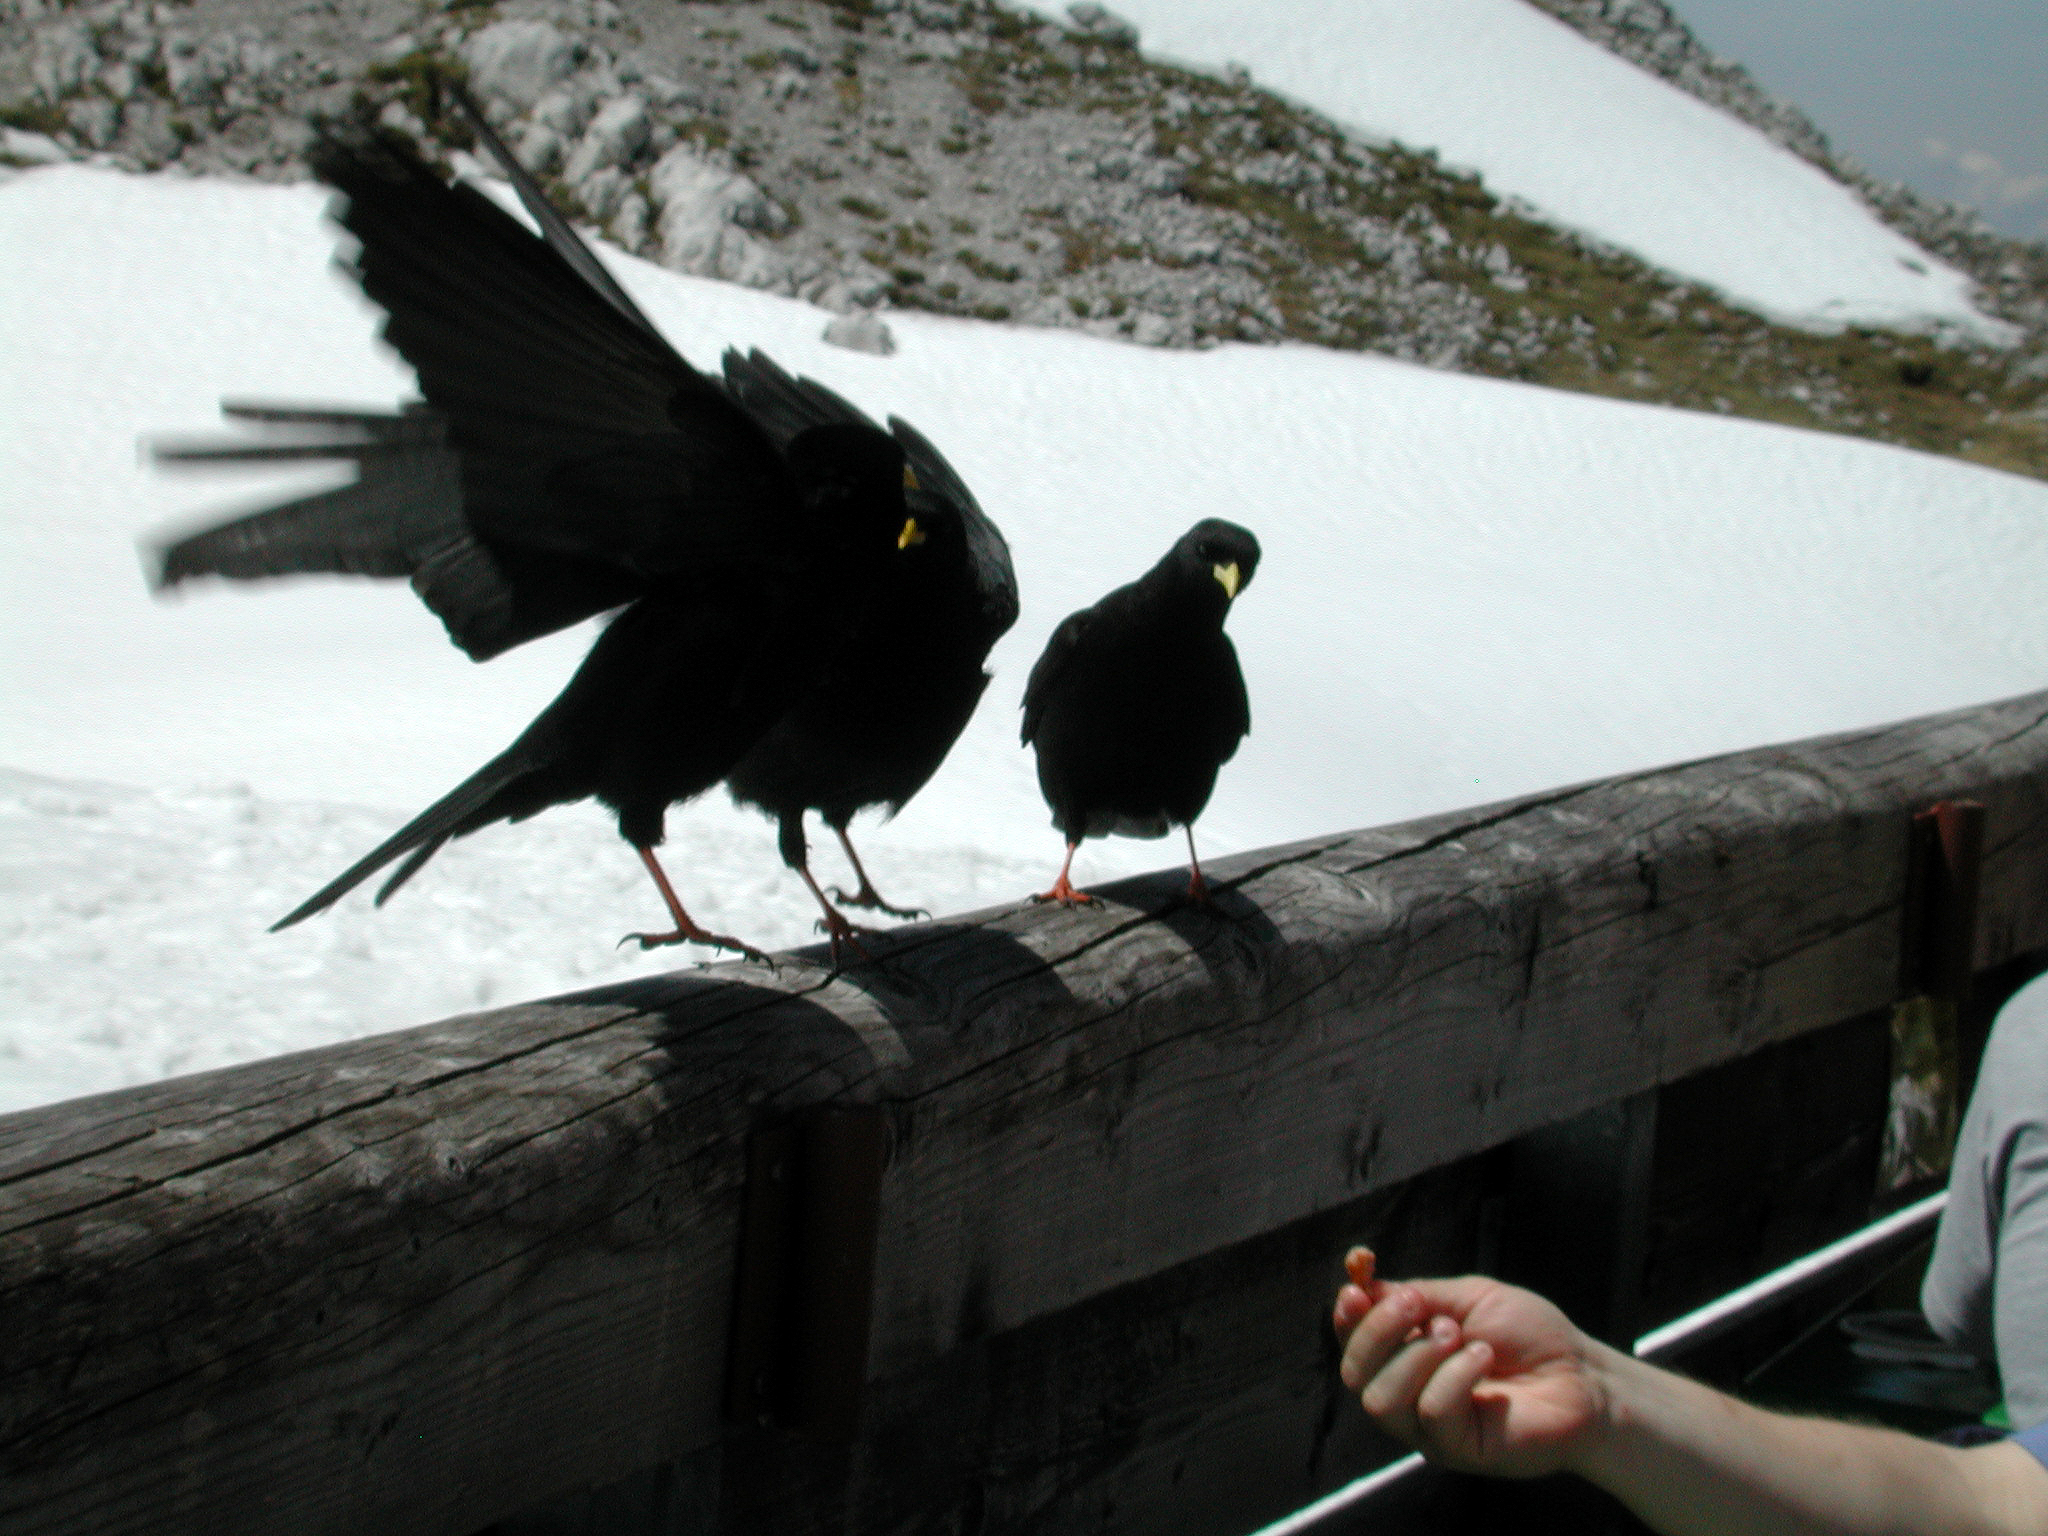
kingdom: Animalia
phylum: Chordata
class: Aves
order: Passeriformes
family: Corvidae
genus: Pyrrhocorax
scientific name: Pyrrhocorax graculus
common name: Alpine chough
